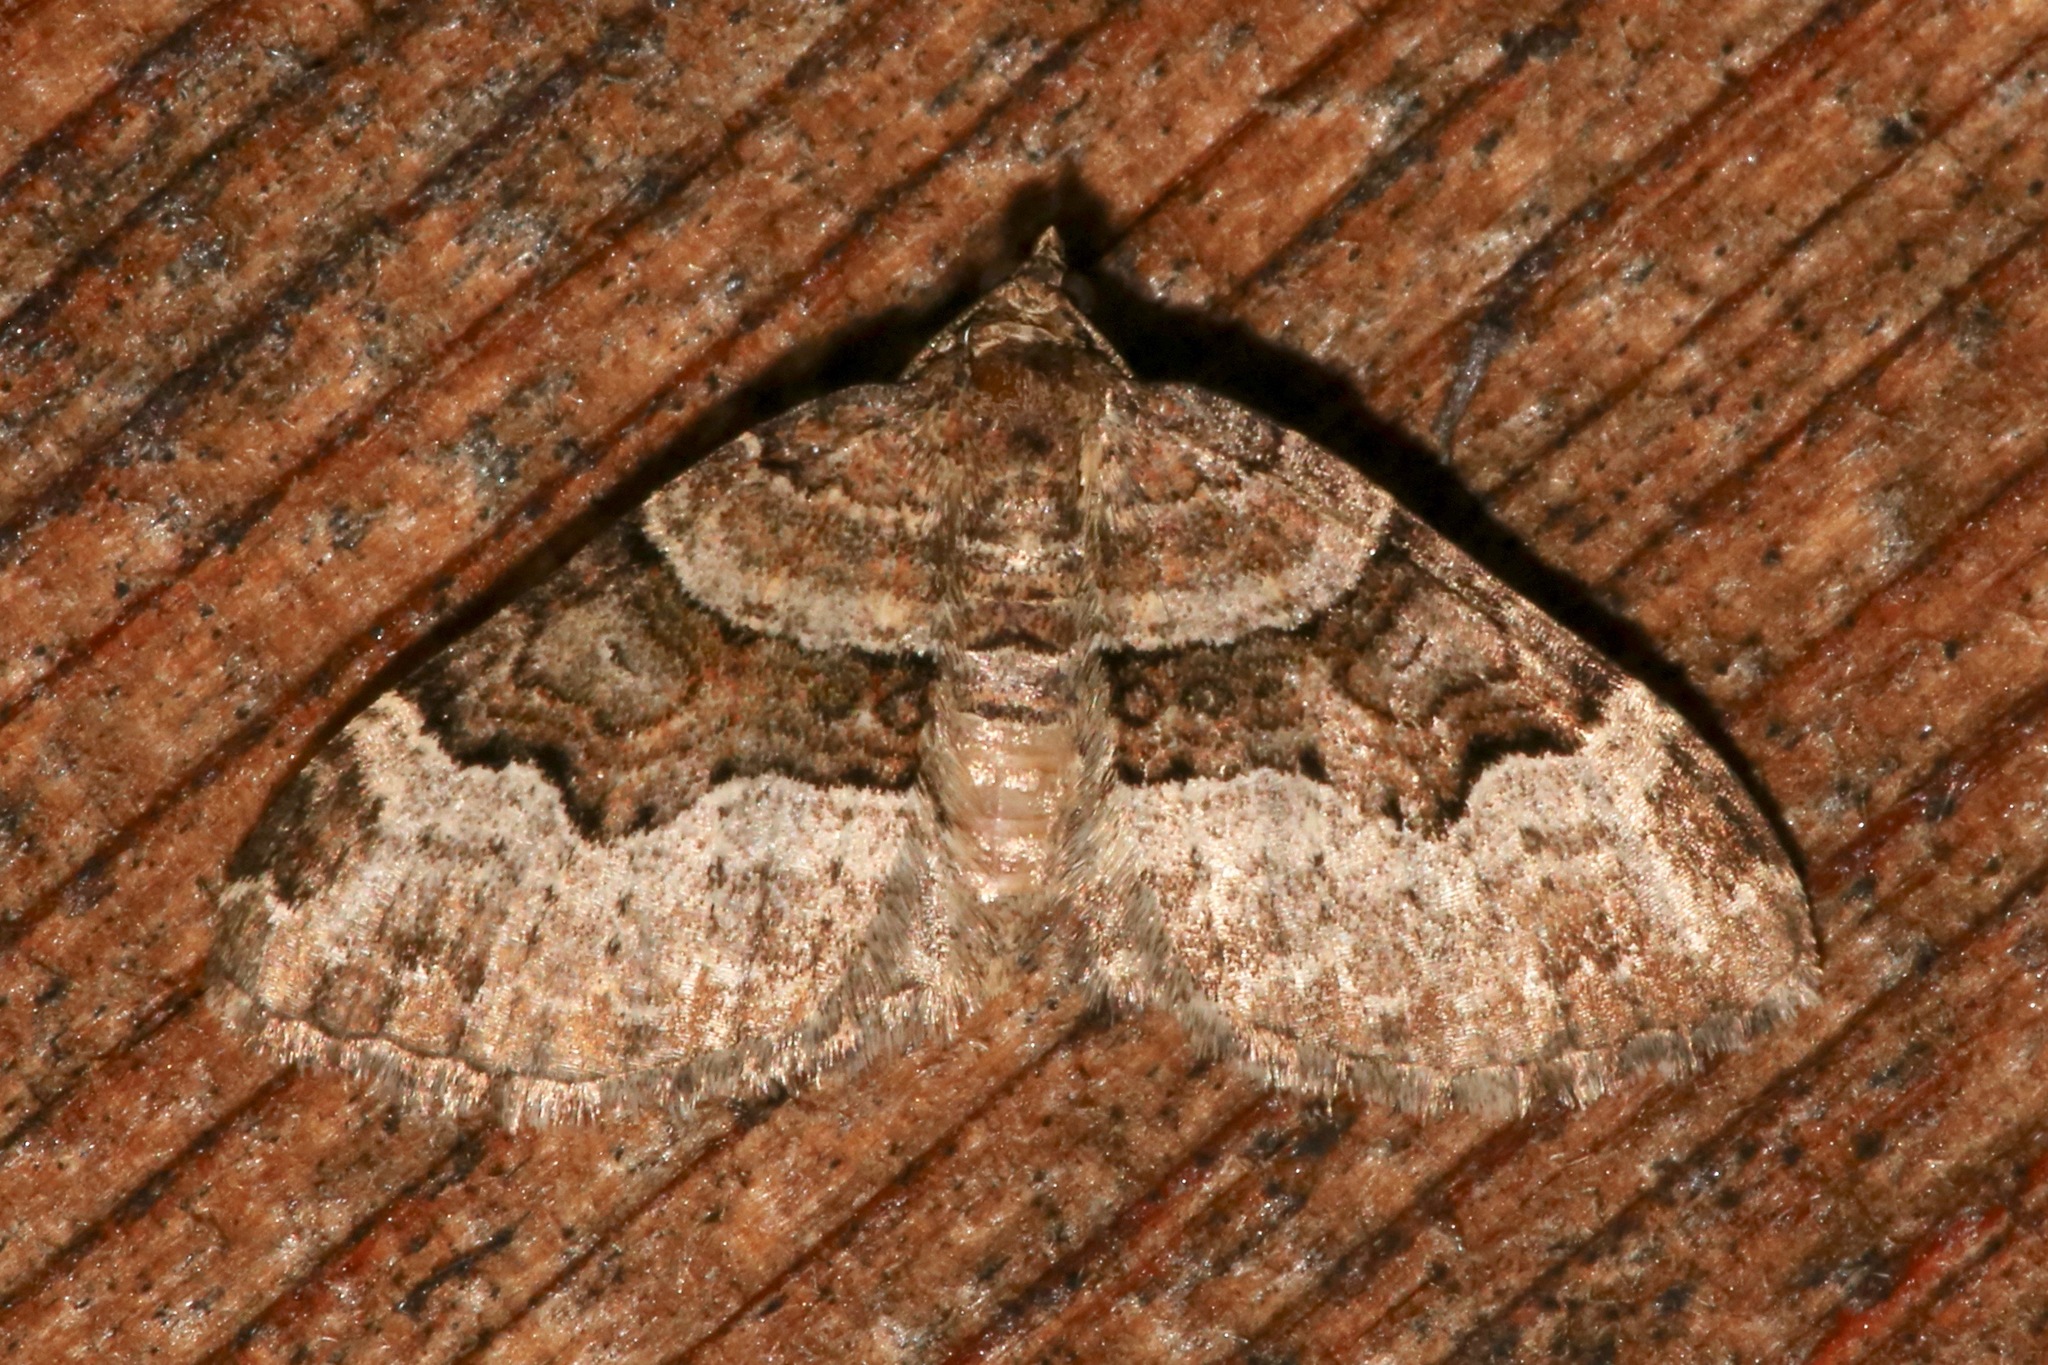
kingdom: Animalia
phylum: Arthropoda
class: Insecta
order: Lepidoptera
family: Geometridae
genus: Xanthorhoe
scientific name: Xanthorhoe lacustrata
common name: Toothed brown carpet
